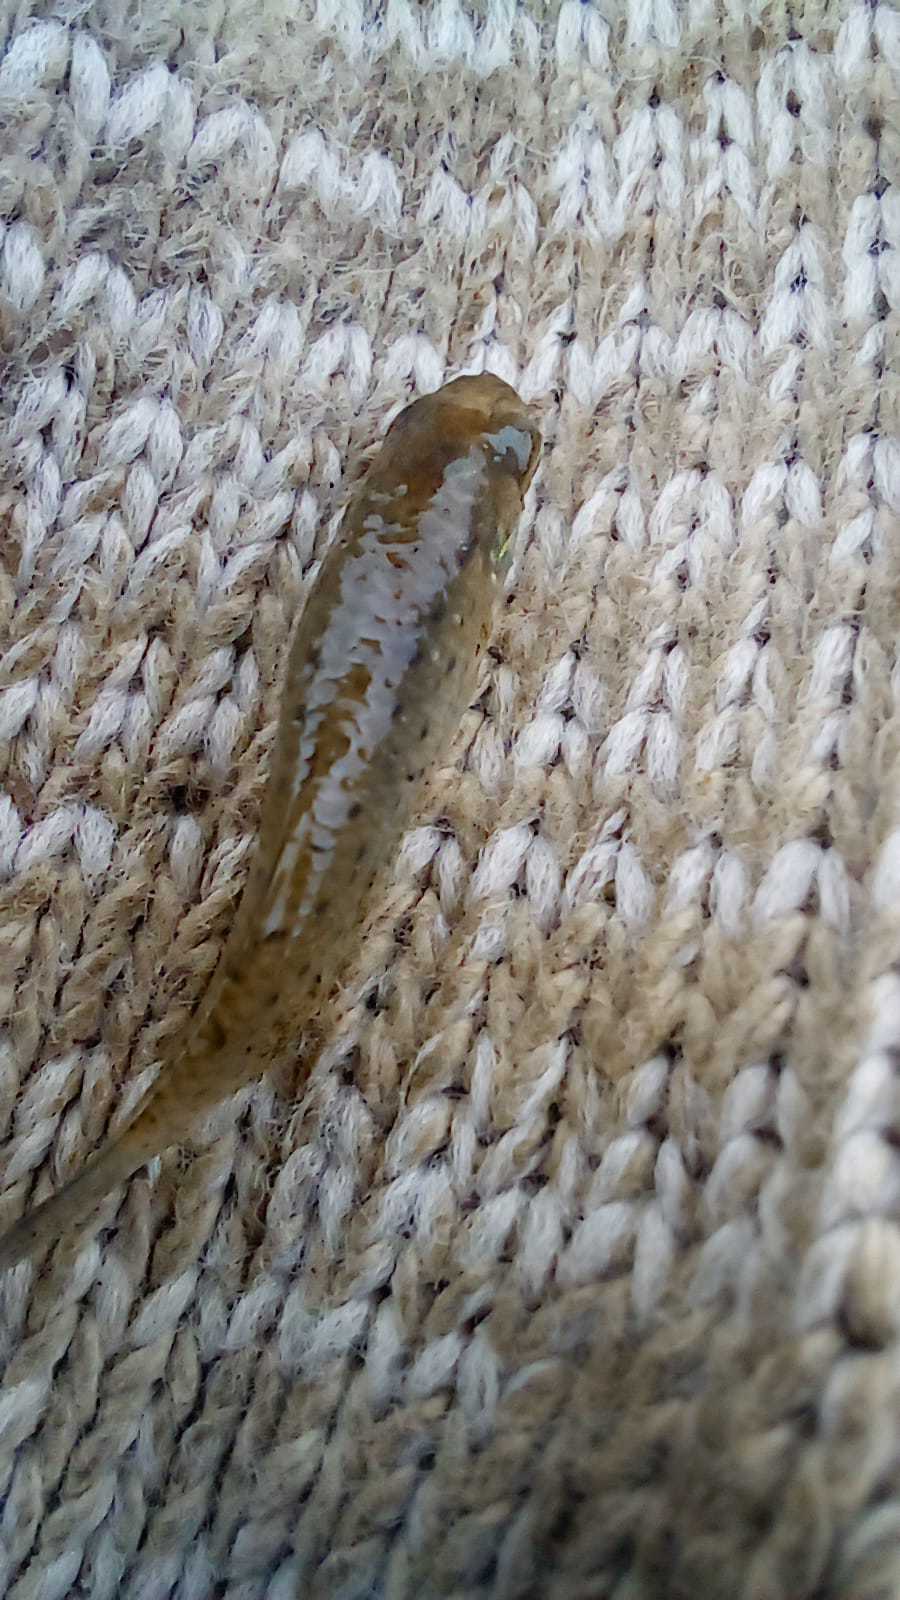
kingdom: Animalia
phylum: Chordata
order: Cyprinodontiformes
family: Anablepidae
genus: Jenynsia
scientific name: Jenynsia lineata
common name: Onesided livebearer
